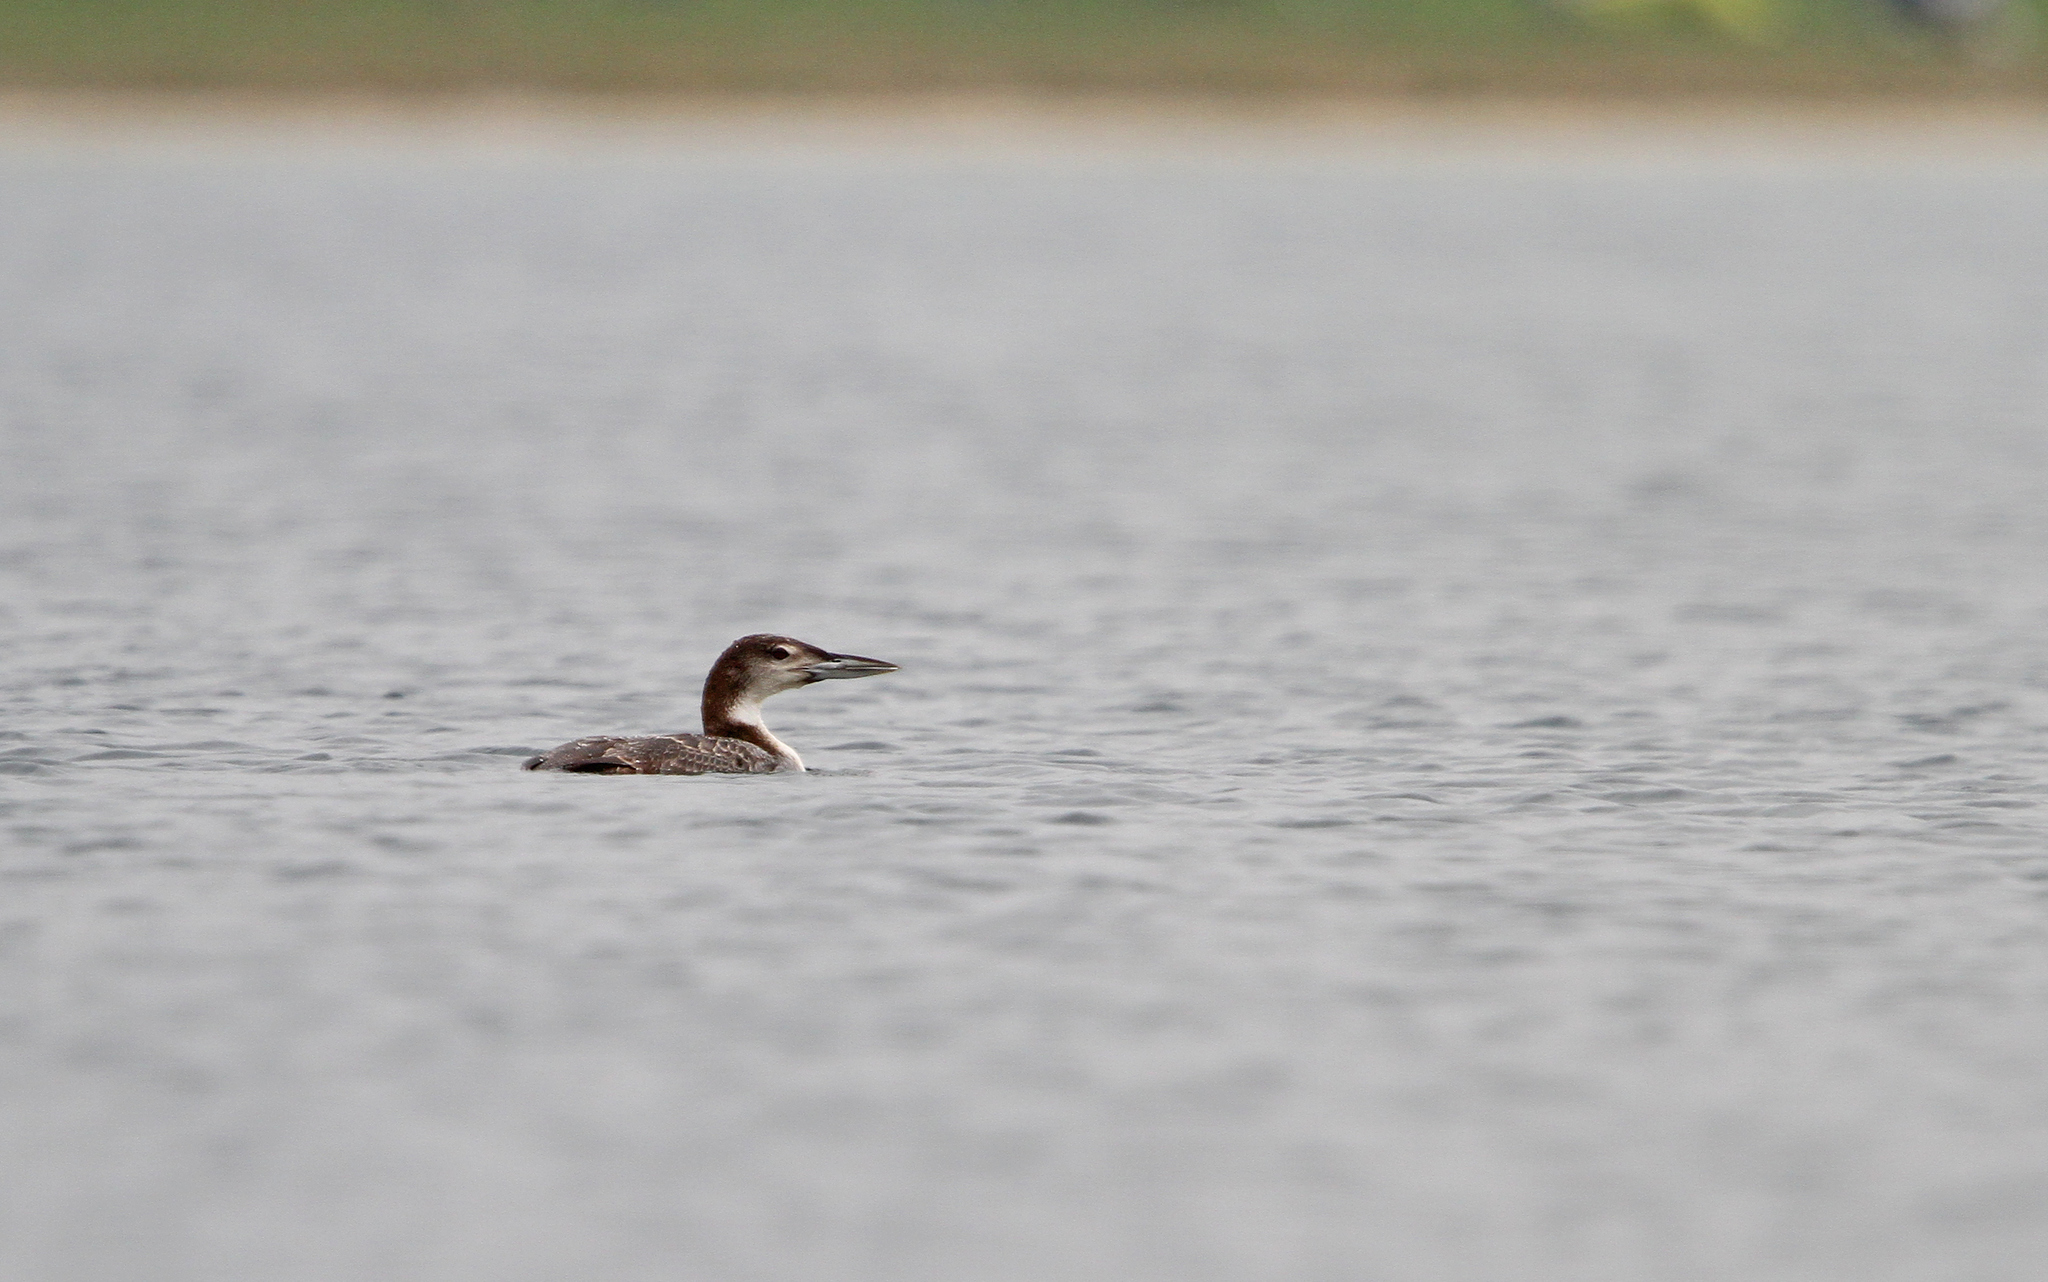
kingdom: Animalia
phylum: Chordata
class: Aves
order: Gaviiformes
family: Gaviidae
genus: Gavia
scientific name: Gavia immer
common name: Common loon
